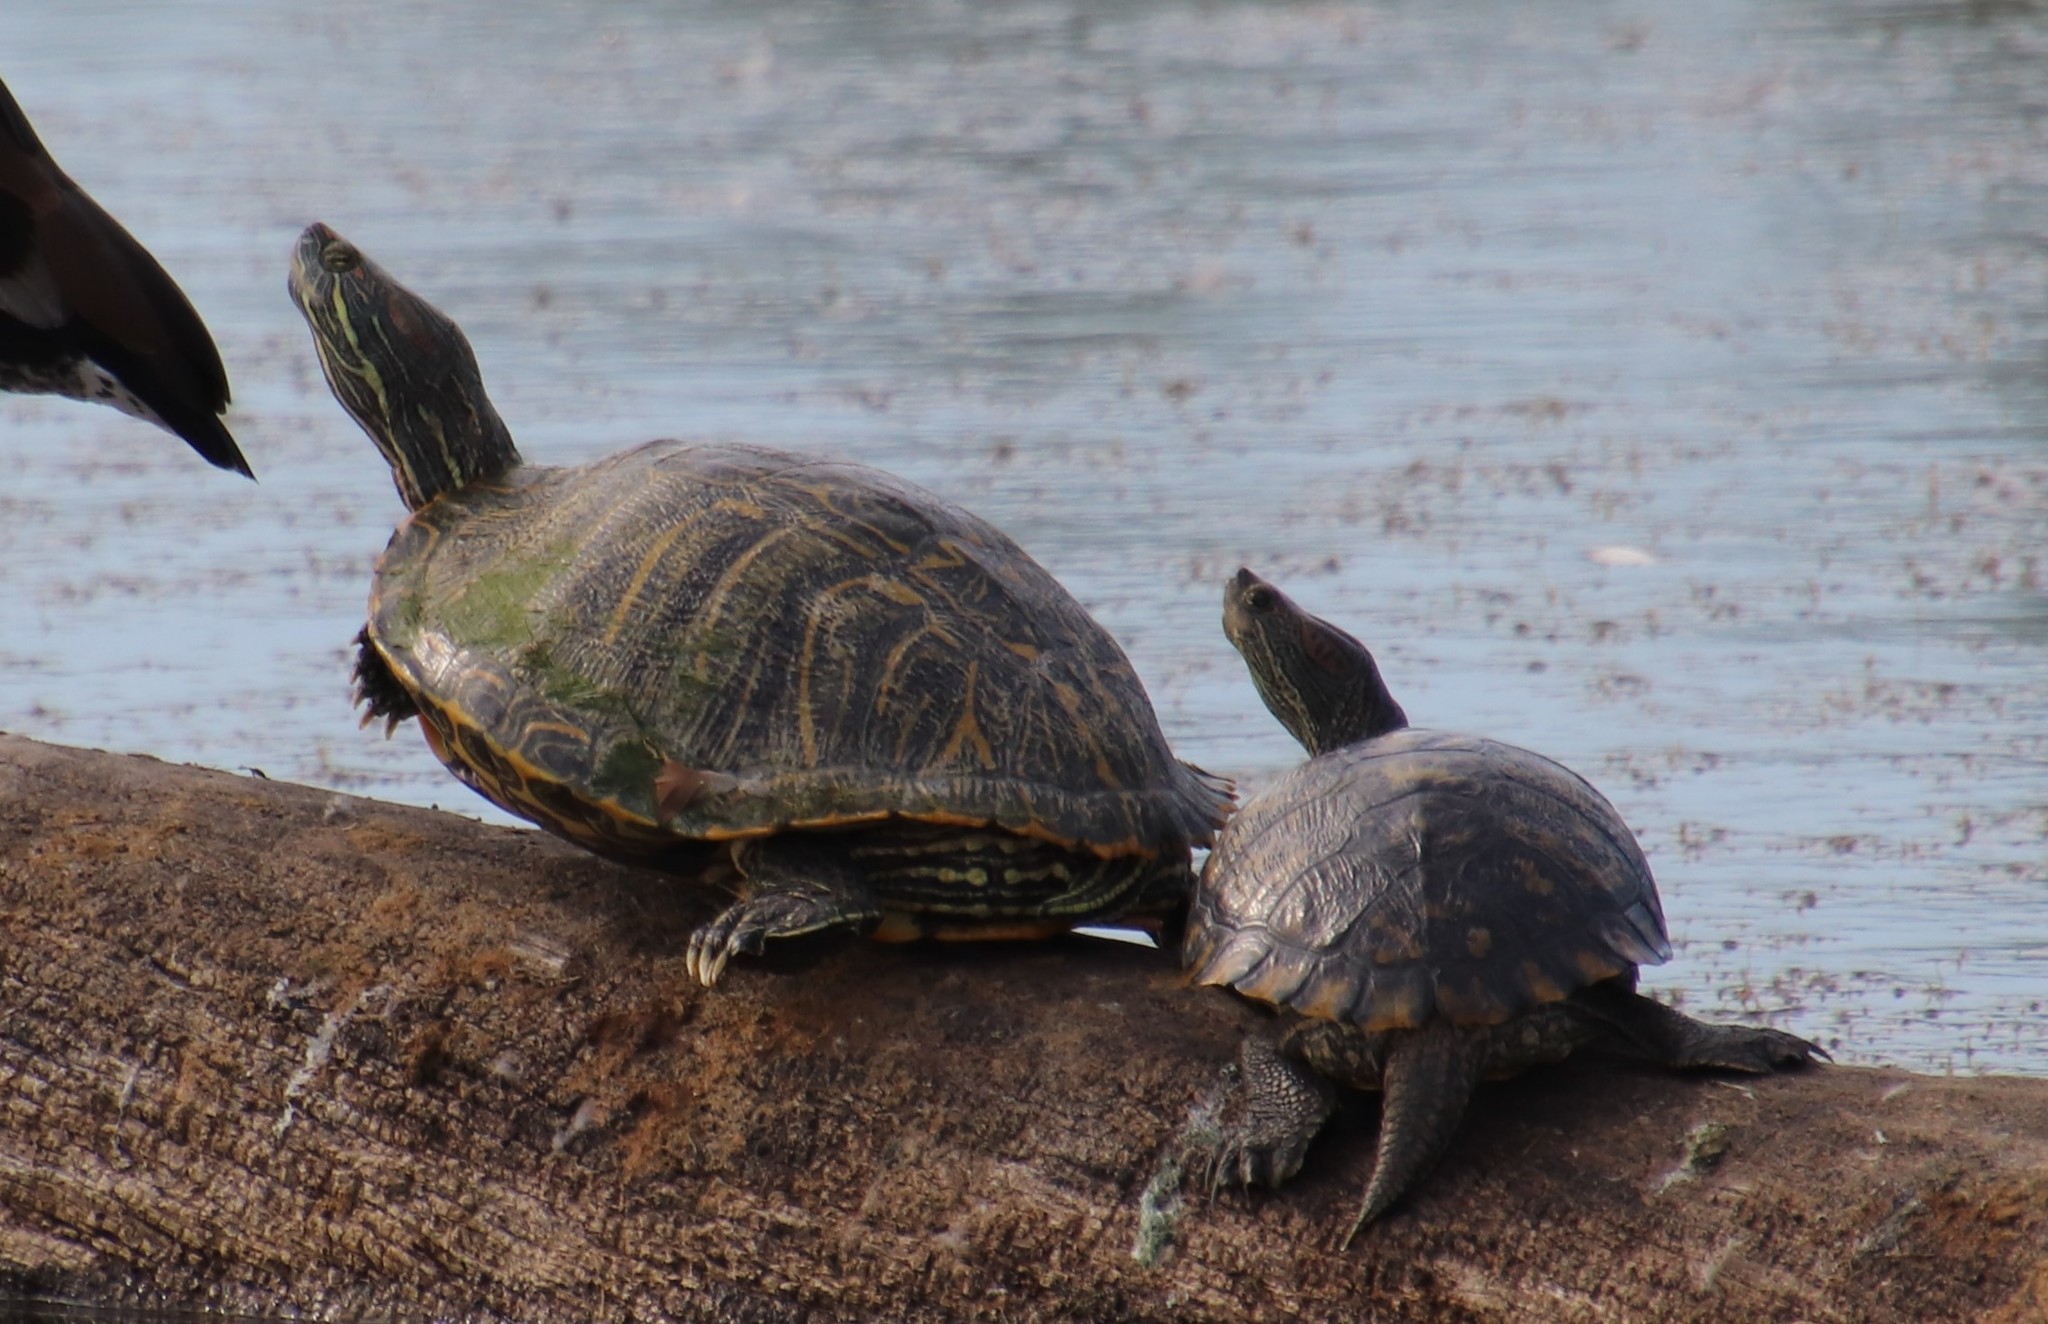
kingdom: Animalia
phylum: Chordata
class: Testudines
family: Emydidae
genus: Trachemys
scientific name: Trachemys scripta
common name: Slider
